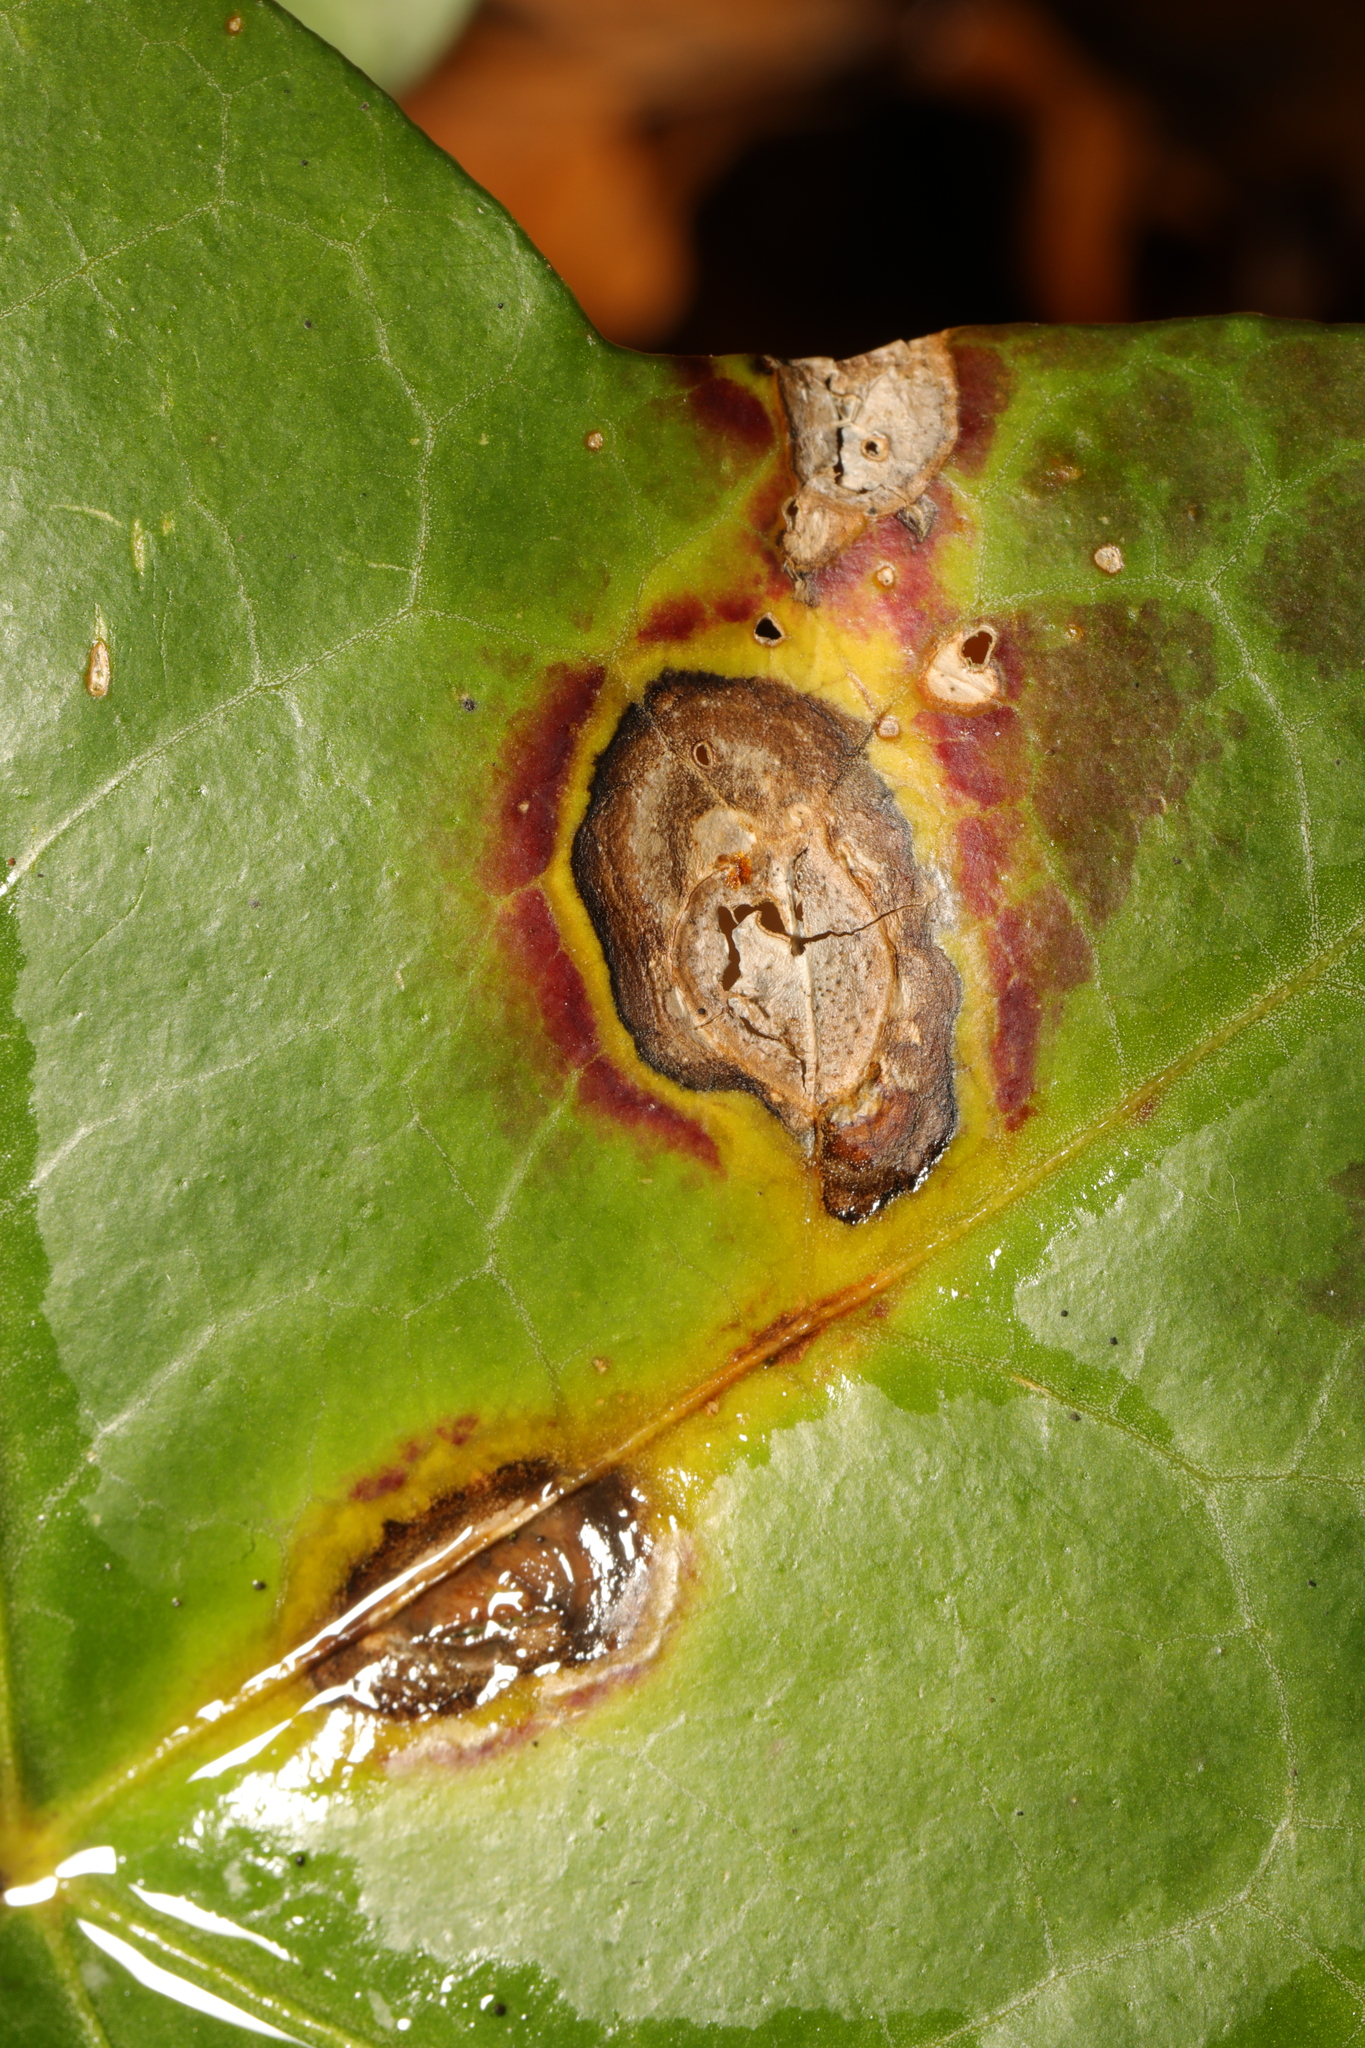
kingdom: Fungi
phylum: Ascomycota
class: Dothideomycetes
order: Pleosporales
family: Didymellaceae
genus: Boeremia
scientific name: Boeremia hedericola
